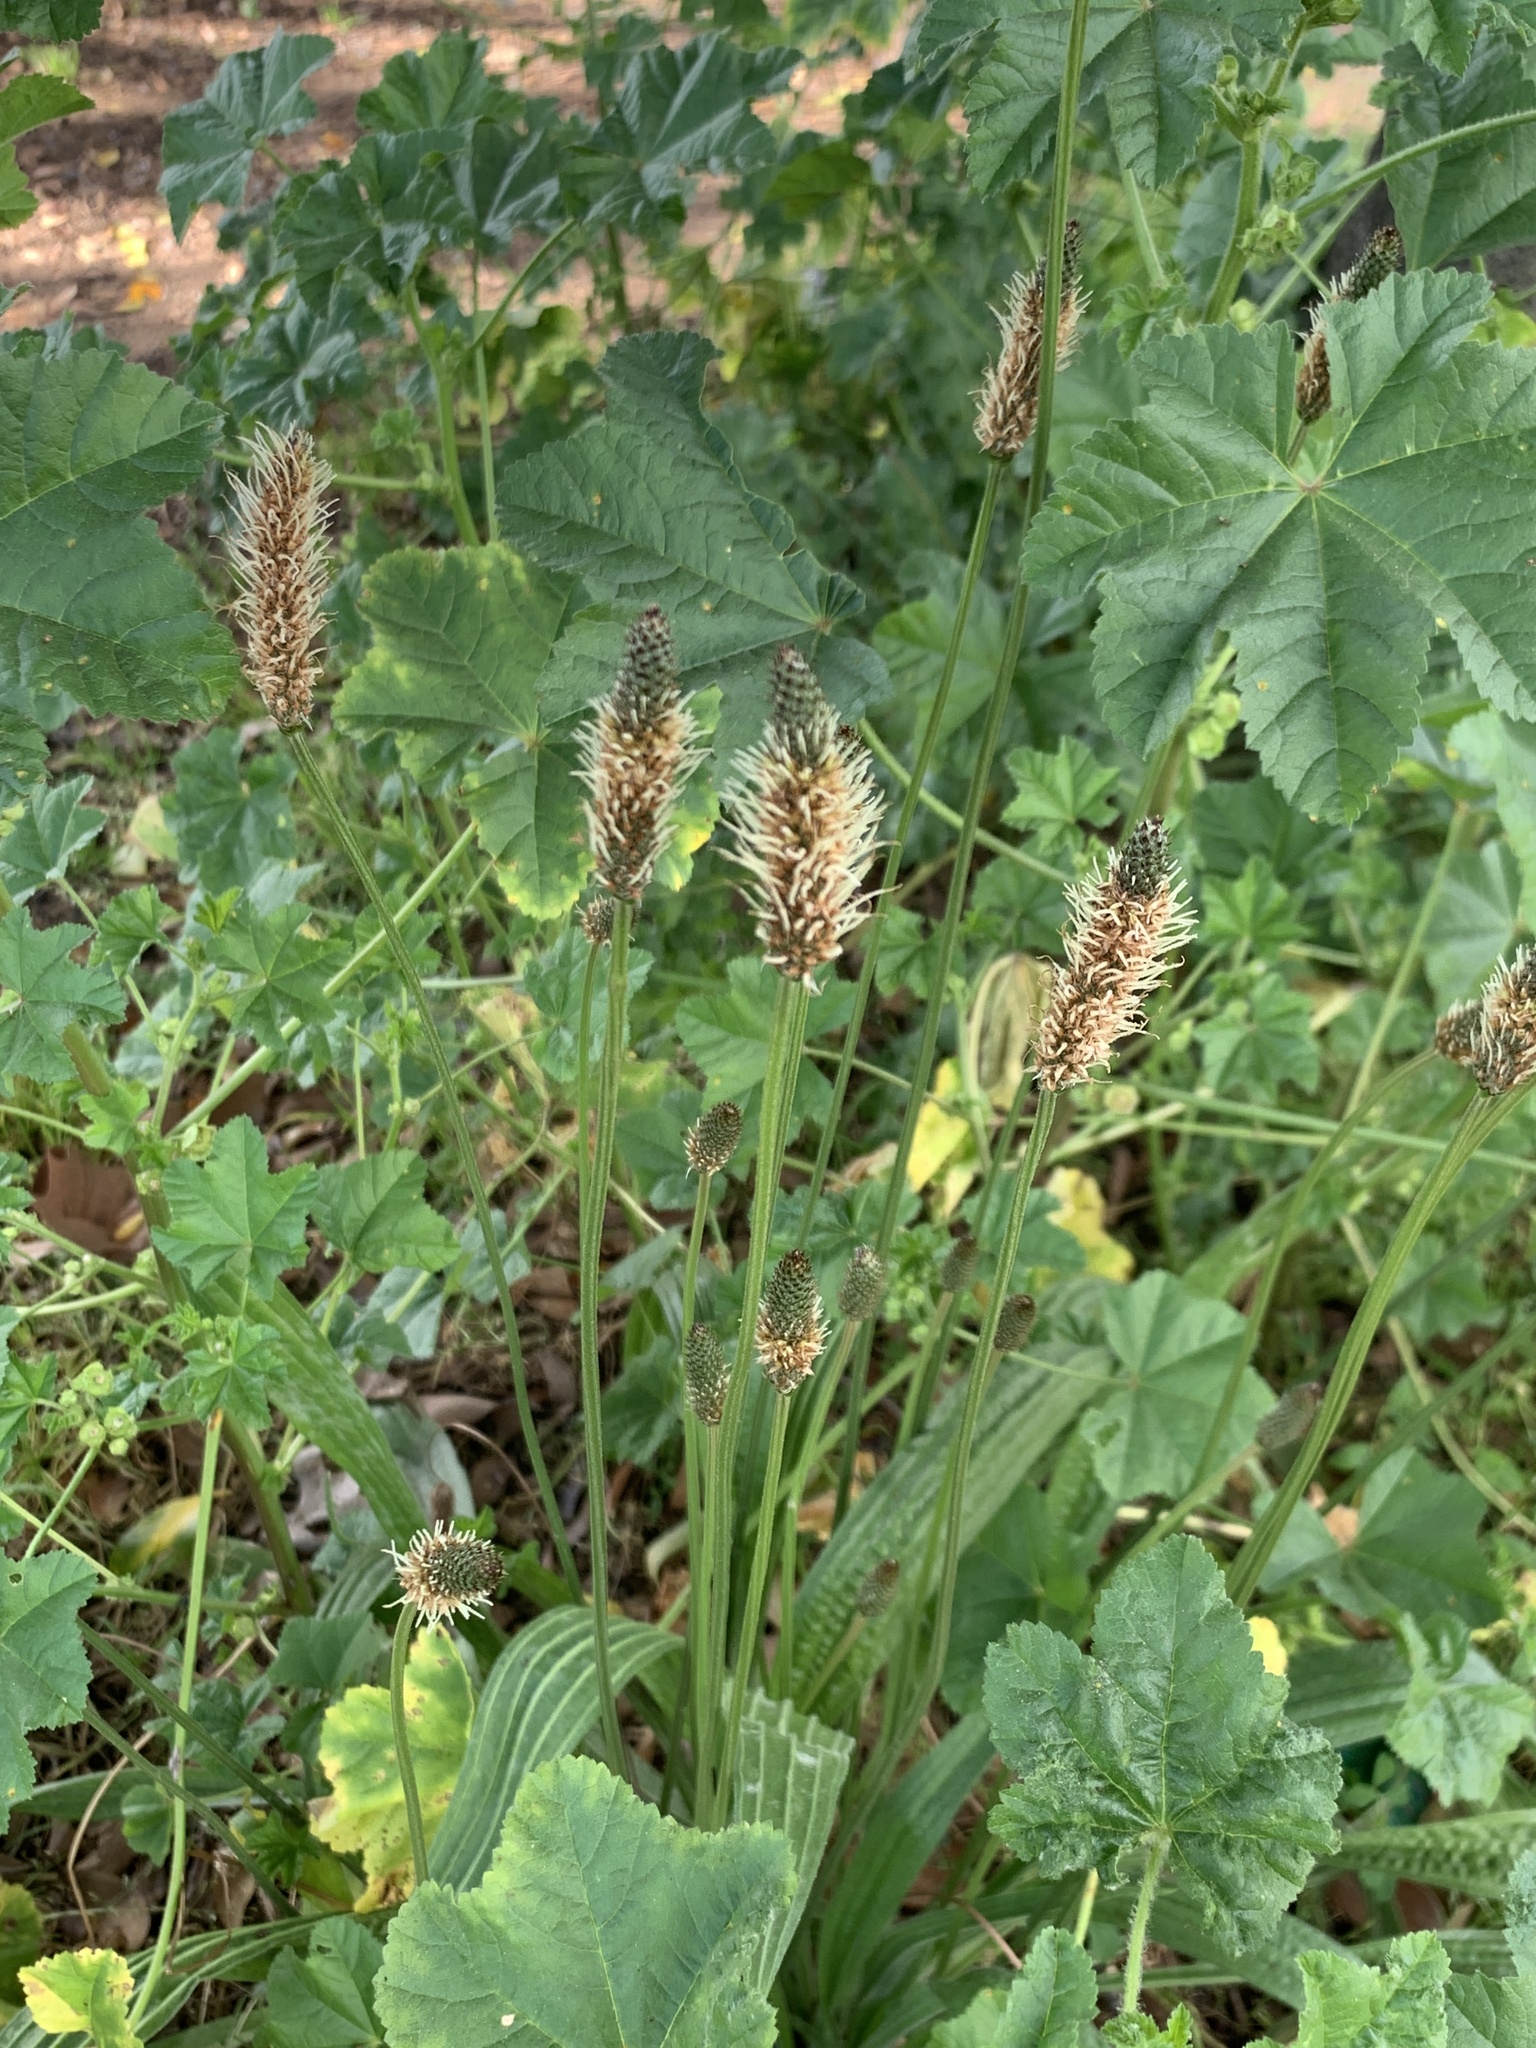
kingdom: Plantae
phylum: Tracheophyta
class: Magnoliopsida
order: Lamiales
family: Plantaginaceae
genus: Plantago
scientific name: Plantago lanceolata
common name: Ribwort plantain
